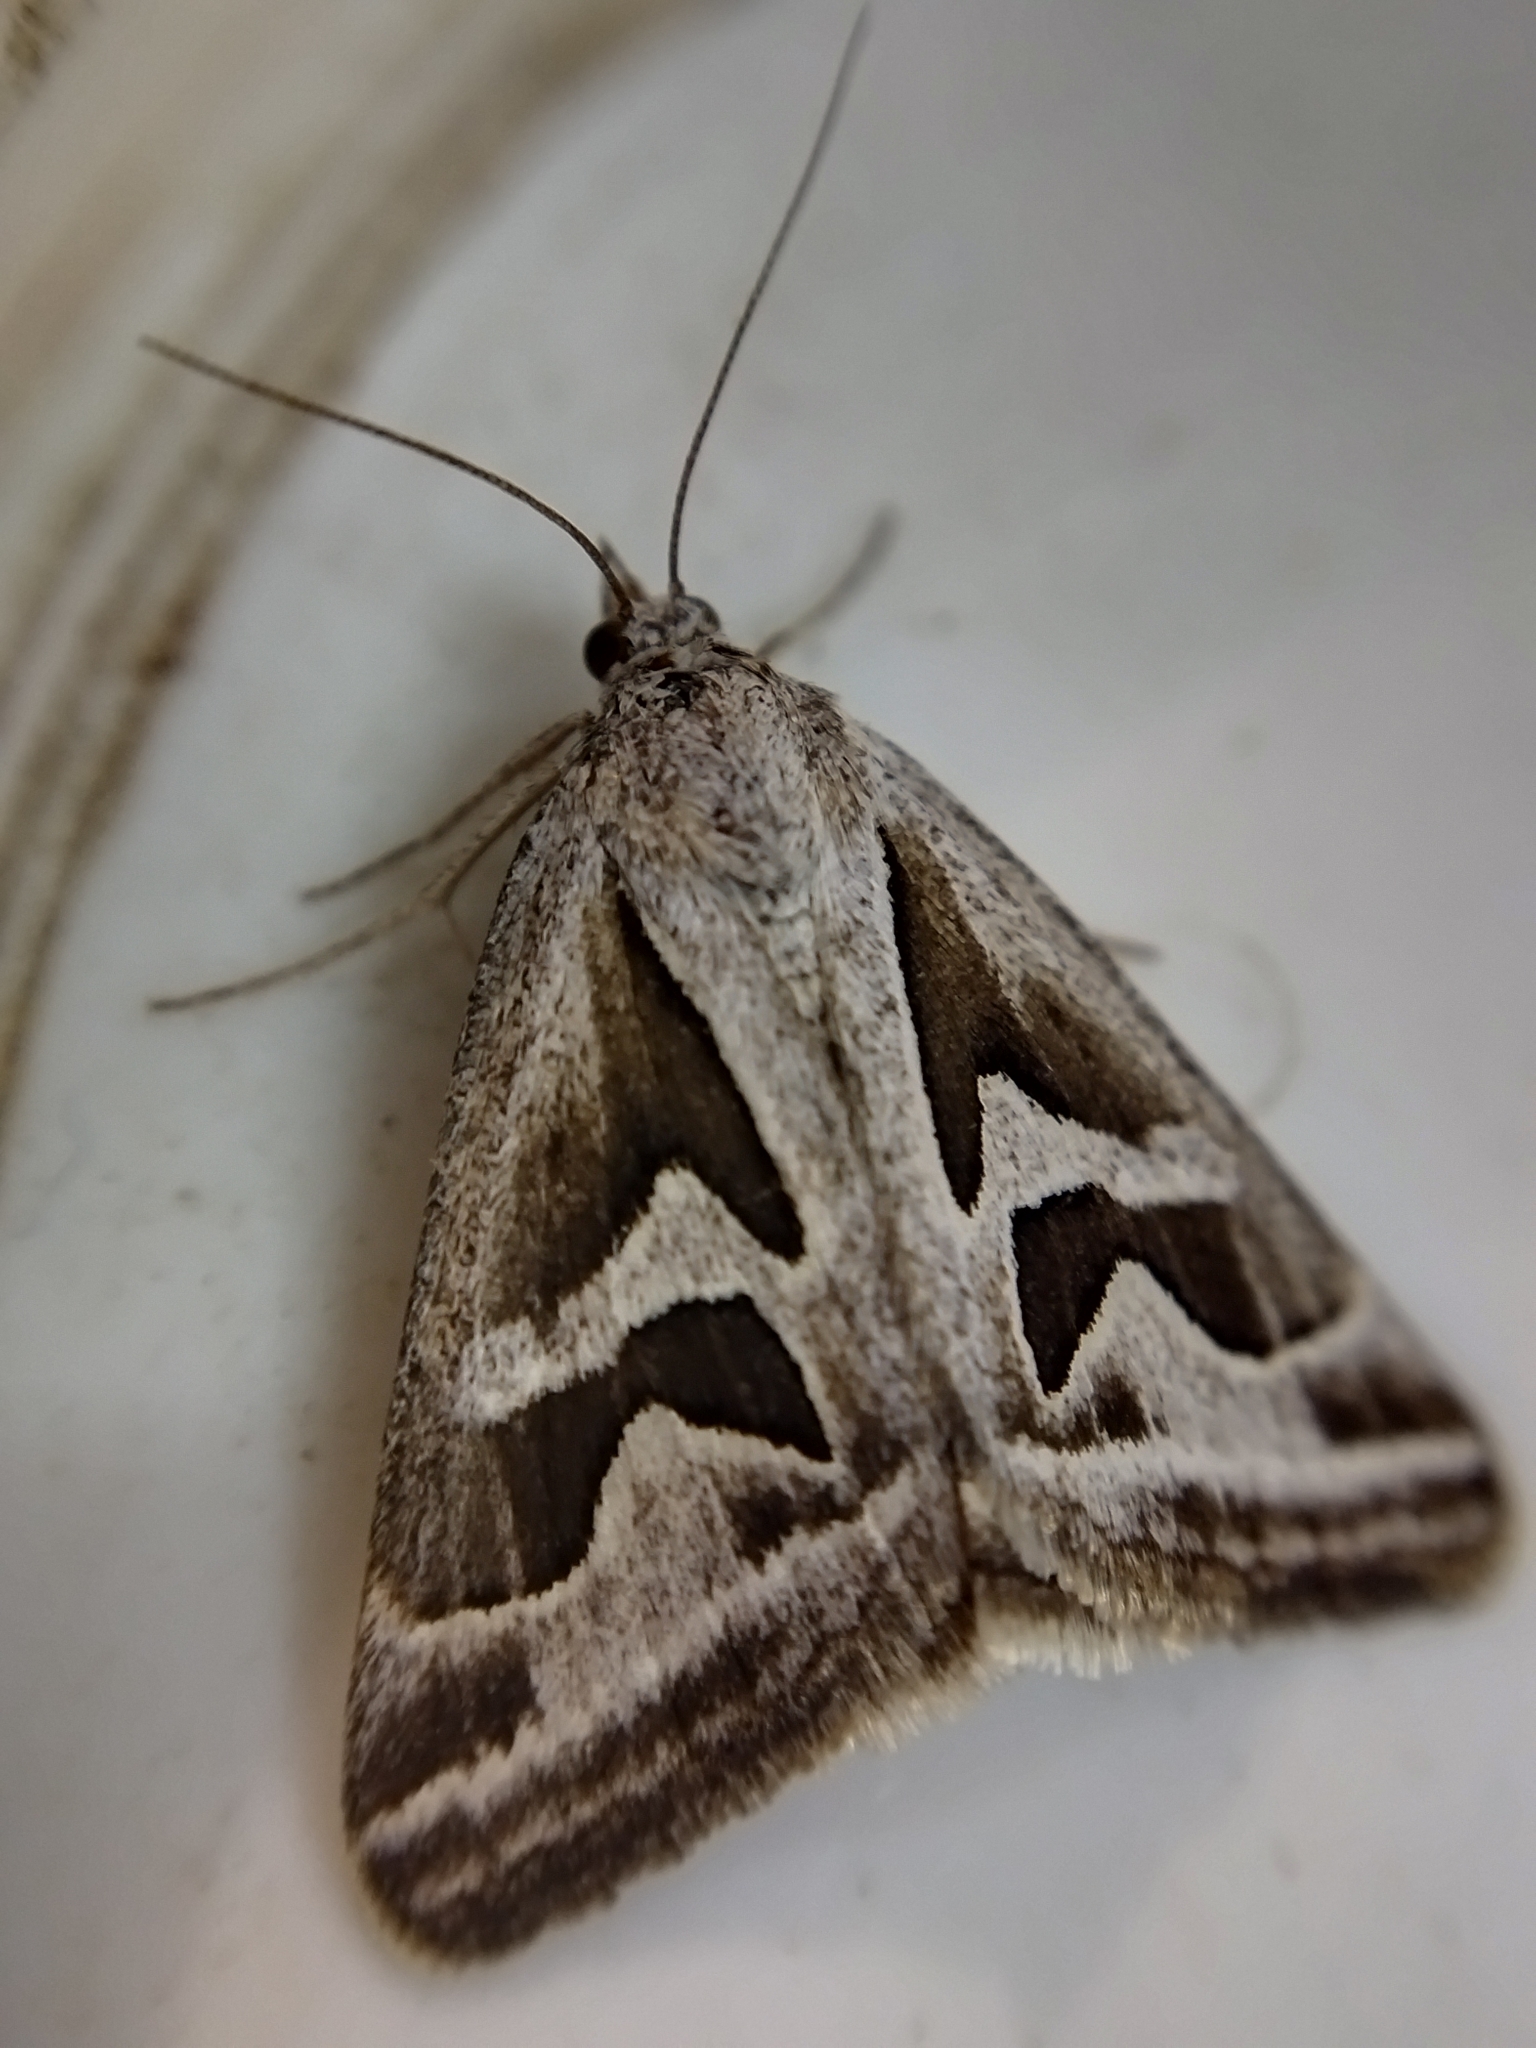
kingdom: Animalia
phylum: Arthropoda
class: Insecta
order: Lepidoptera
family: Erebidae
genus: Callistege
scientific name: Callistege
